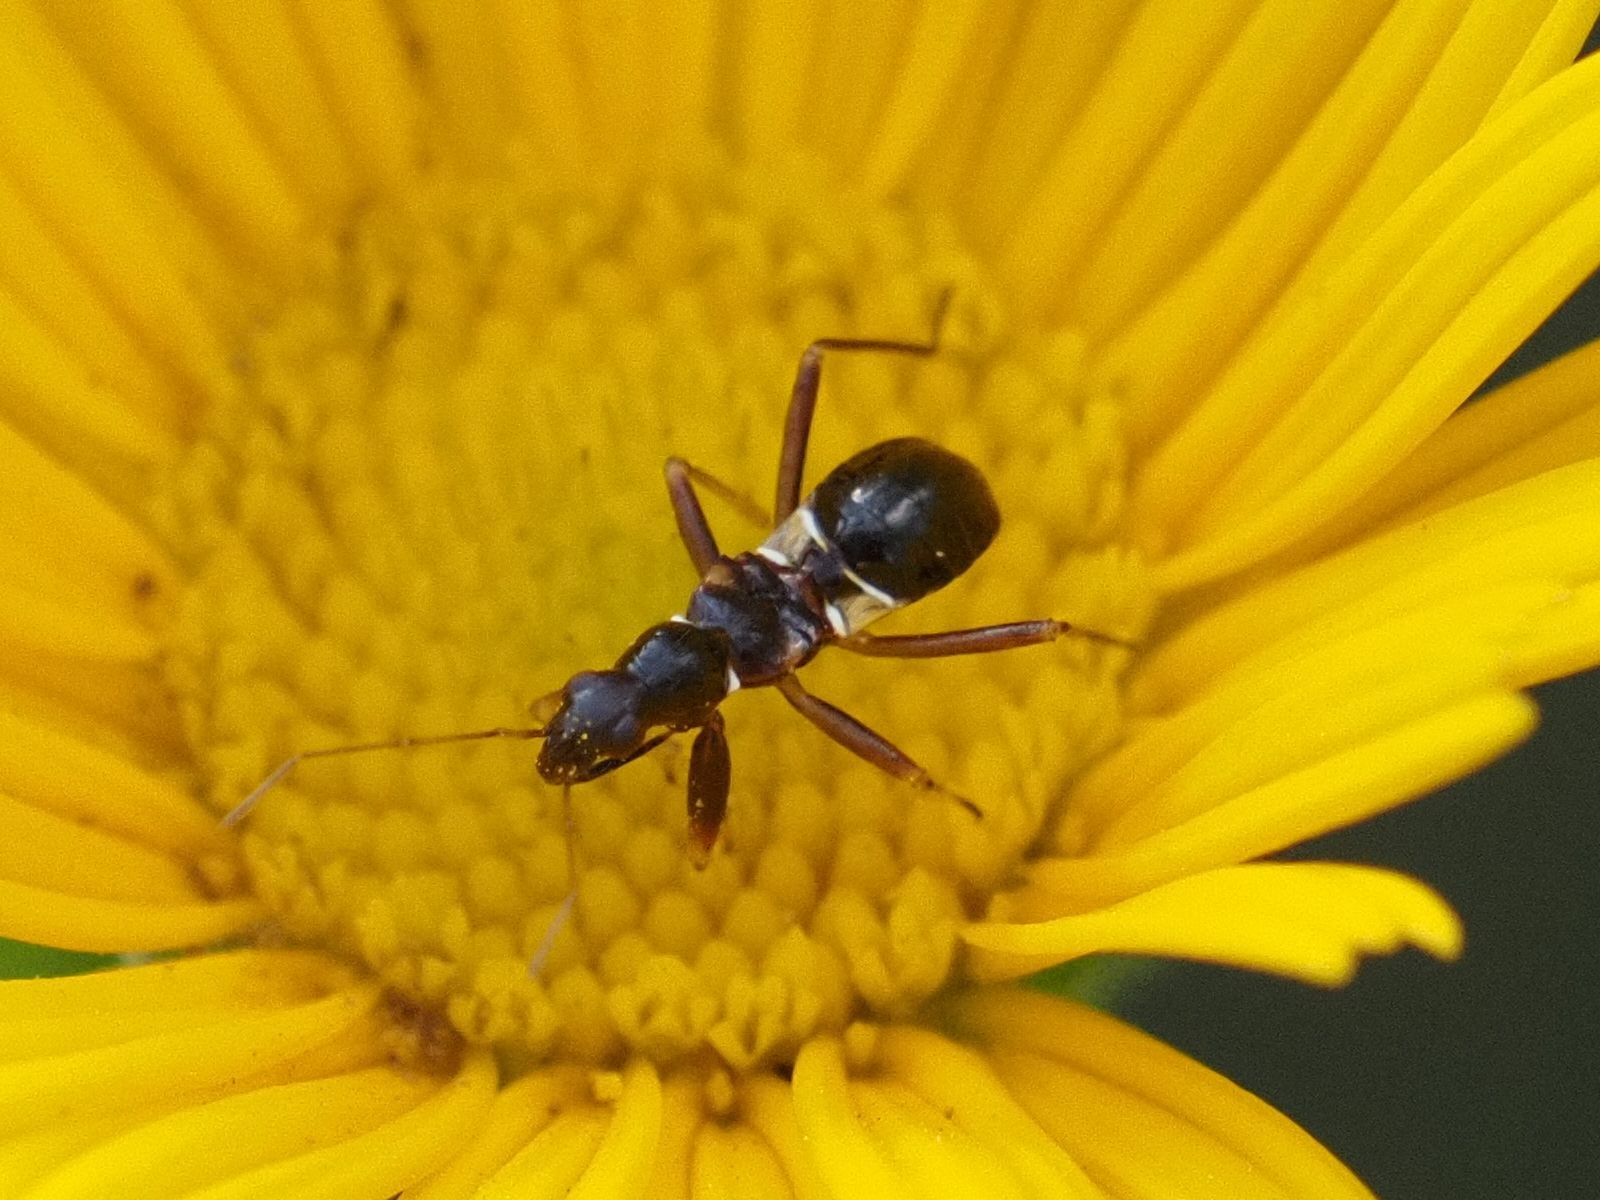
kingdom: Animalia
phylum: Arthropoda
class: Insecta
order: Hemiptera
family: Nabidae
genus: Himacerus
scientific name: Himacerus mirmicoides
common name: Ant damsel bug
